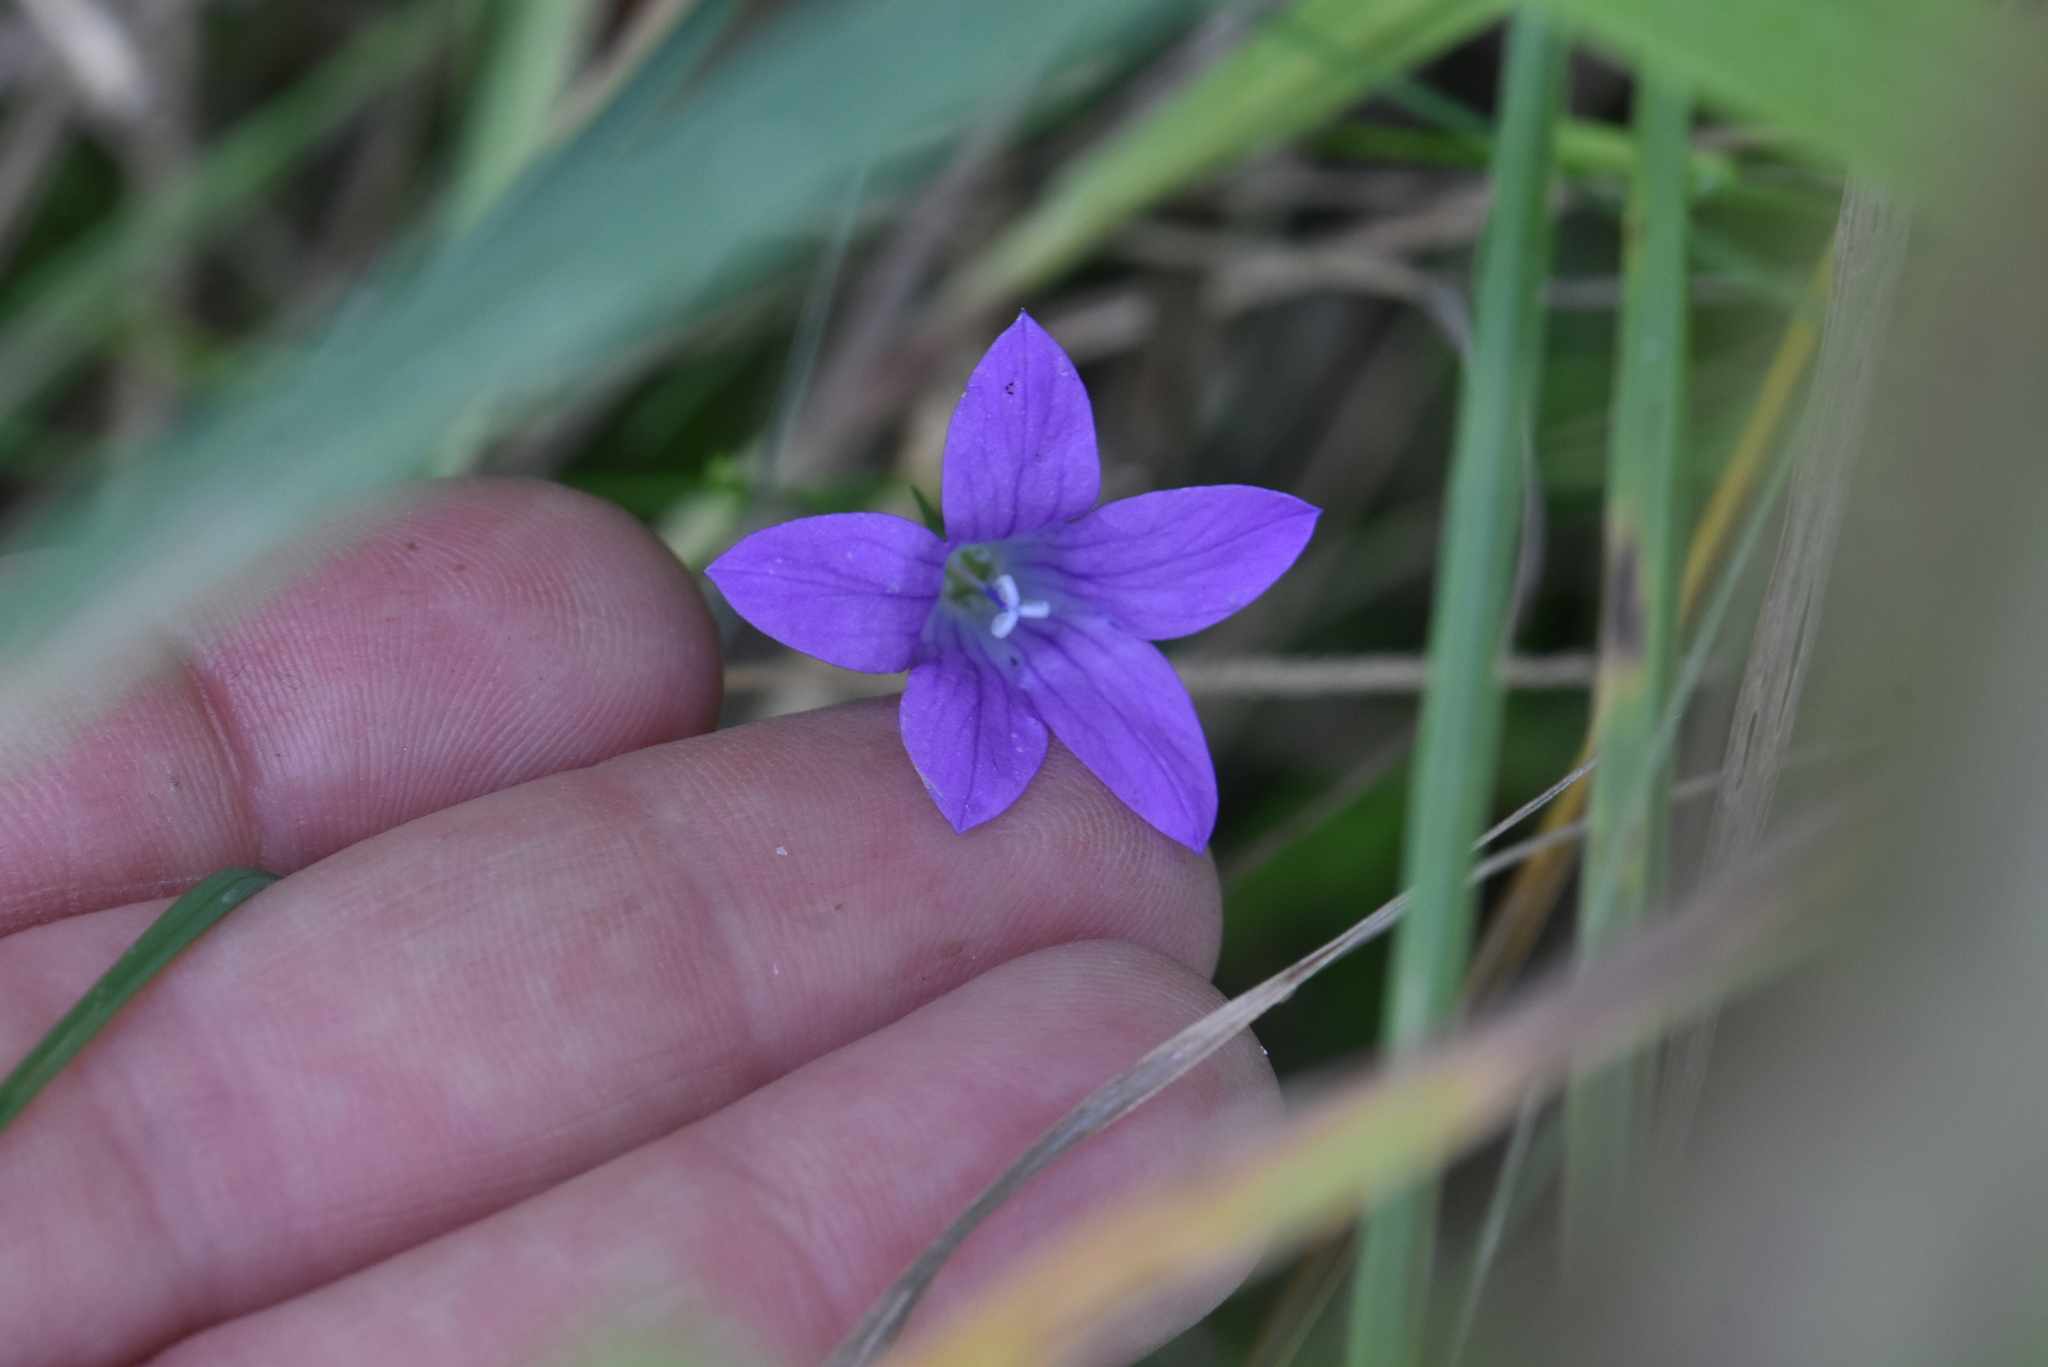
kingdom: Plantae
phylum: Tracheophyta
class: Magnoliopsida
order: Asterales
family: Campanulaceae
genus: Campanula
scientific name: Campanula patula
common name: Spreading bellflower
